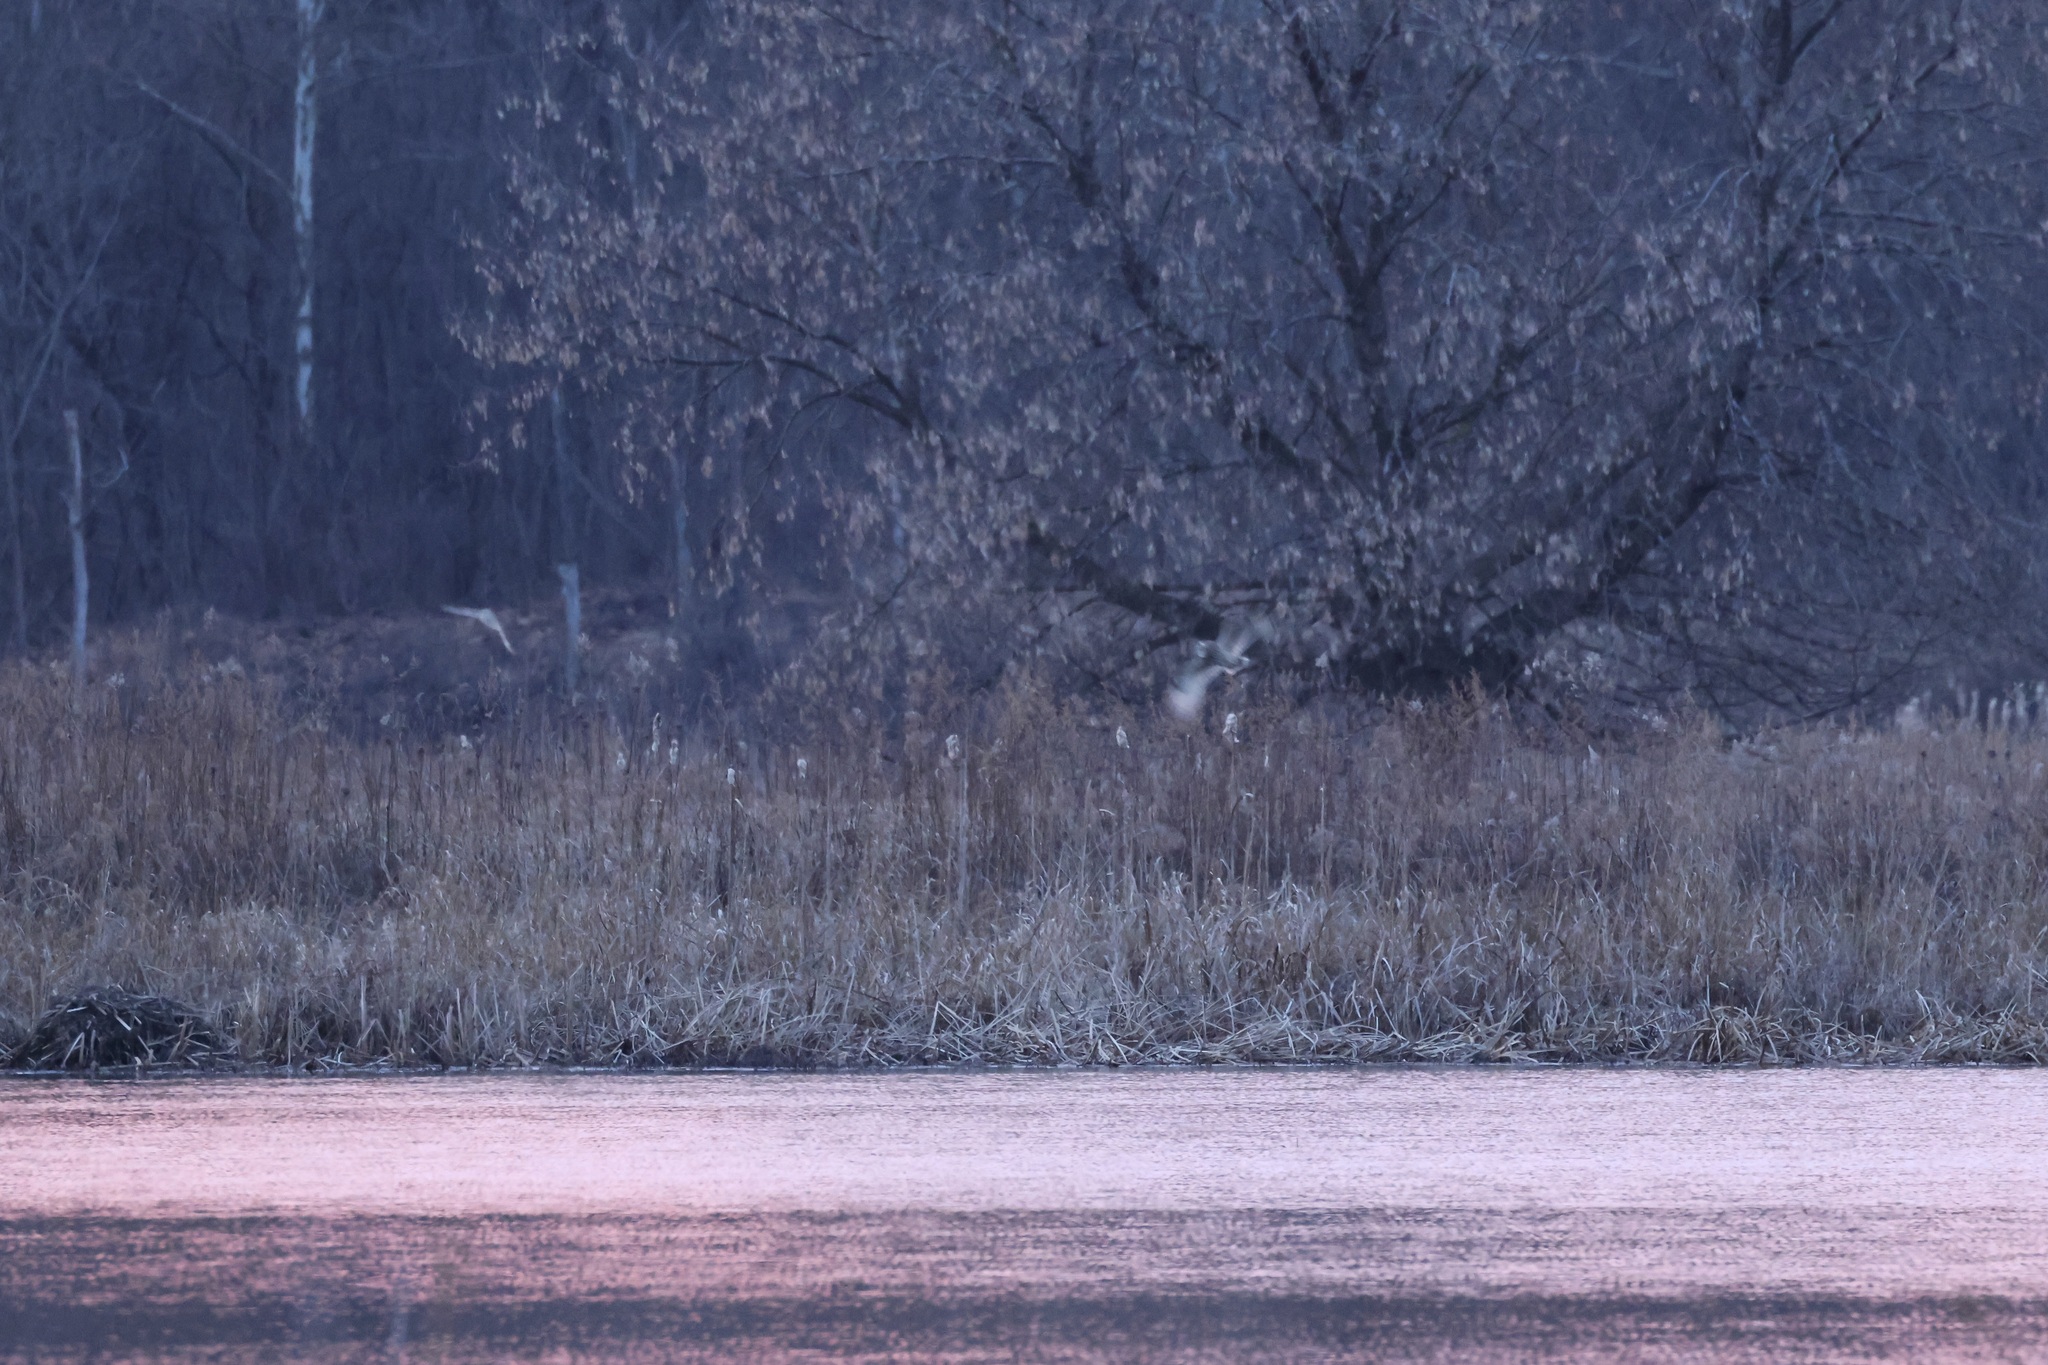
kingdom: Animalia
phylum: Chordata
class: Aves
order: Strigiformes
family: Strigidae
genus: Asio
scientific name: Asio flammeus
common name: Short-eared owl
